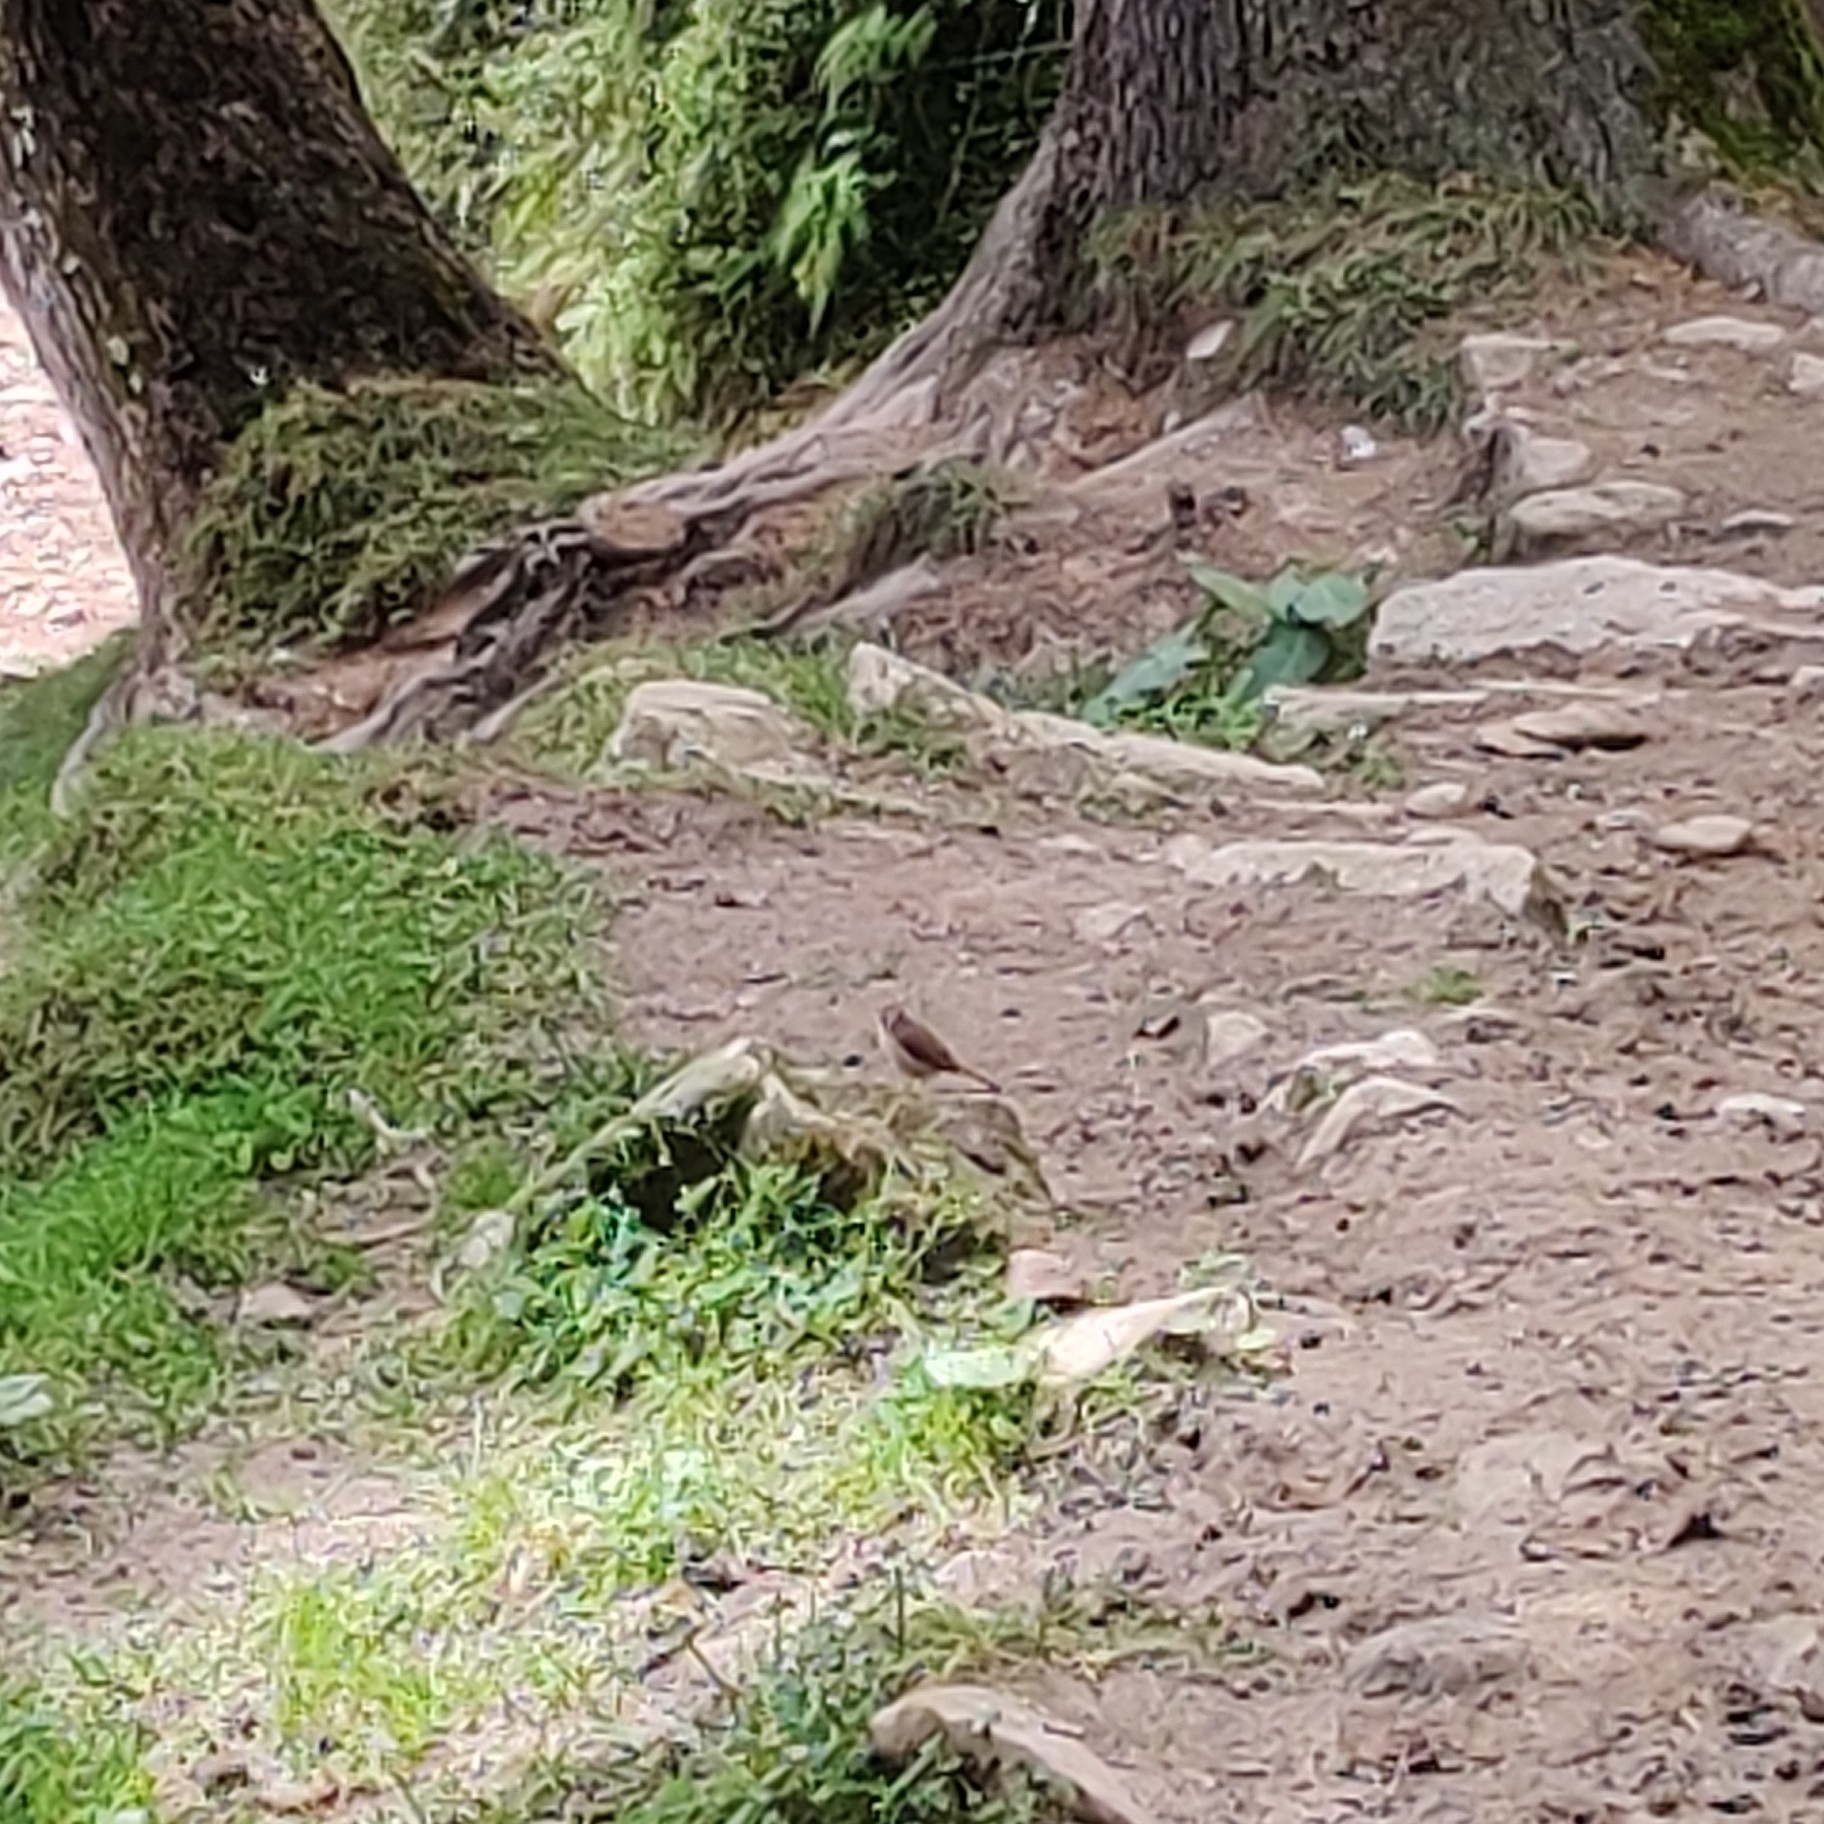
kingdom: Animalia
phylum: Chordata
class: Aves
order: Passeriformes
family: Laniidae
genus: Lanius
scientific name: Lanius cristatus
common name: Brown shrike
